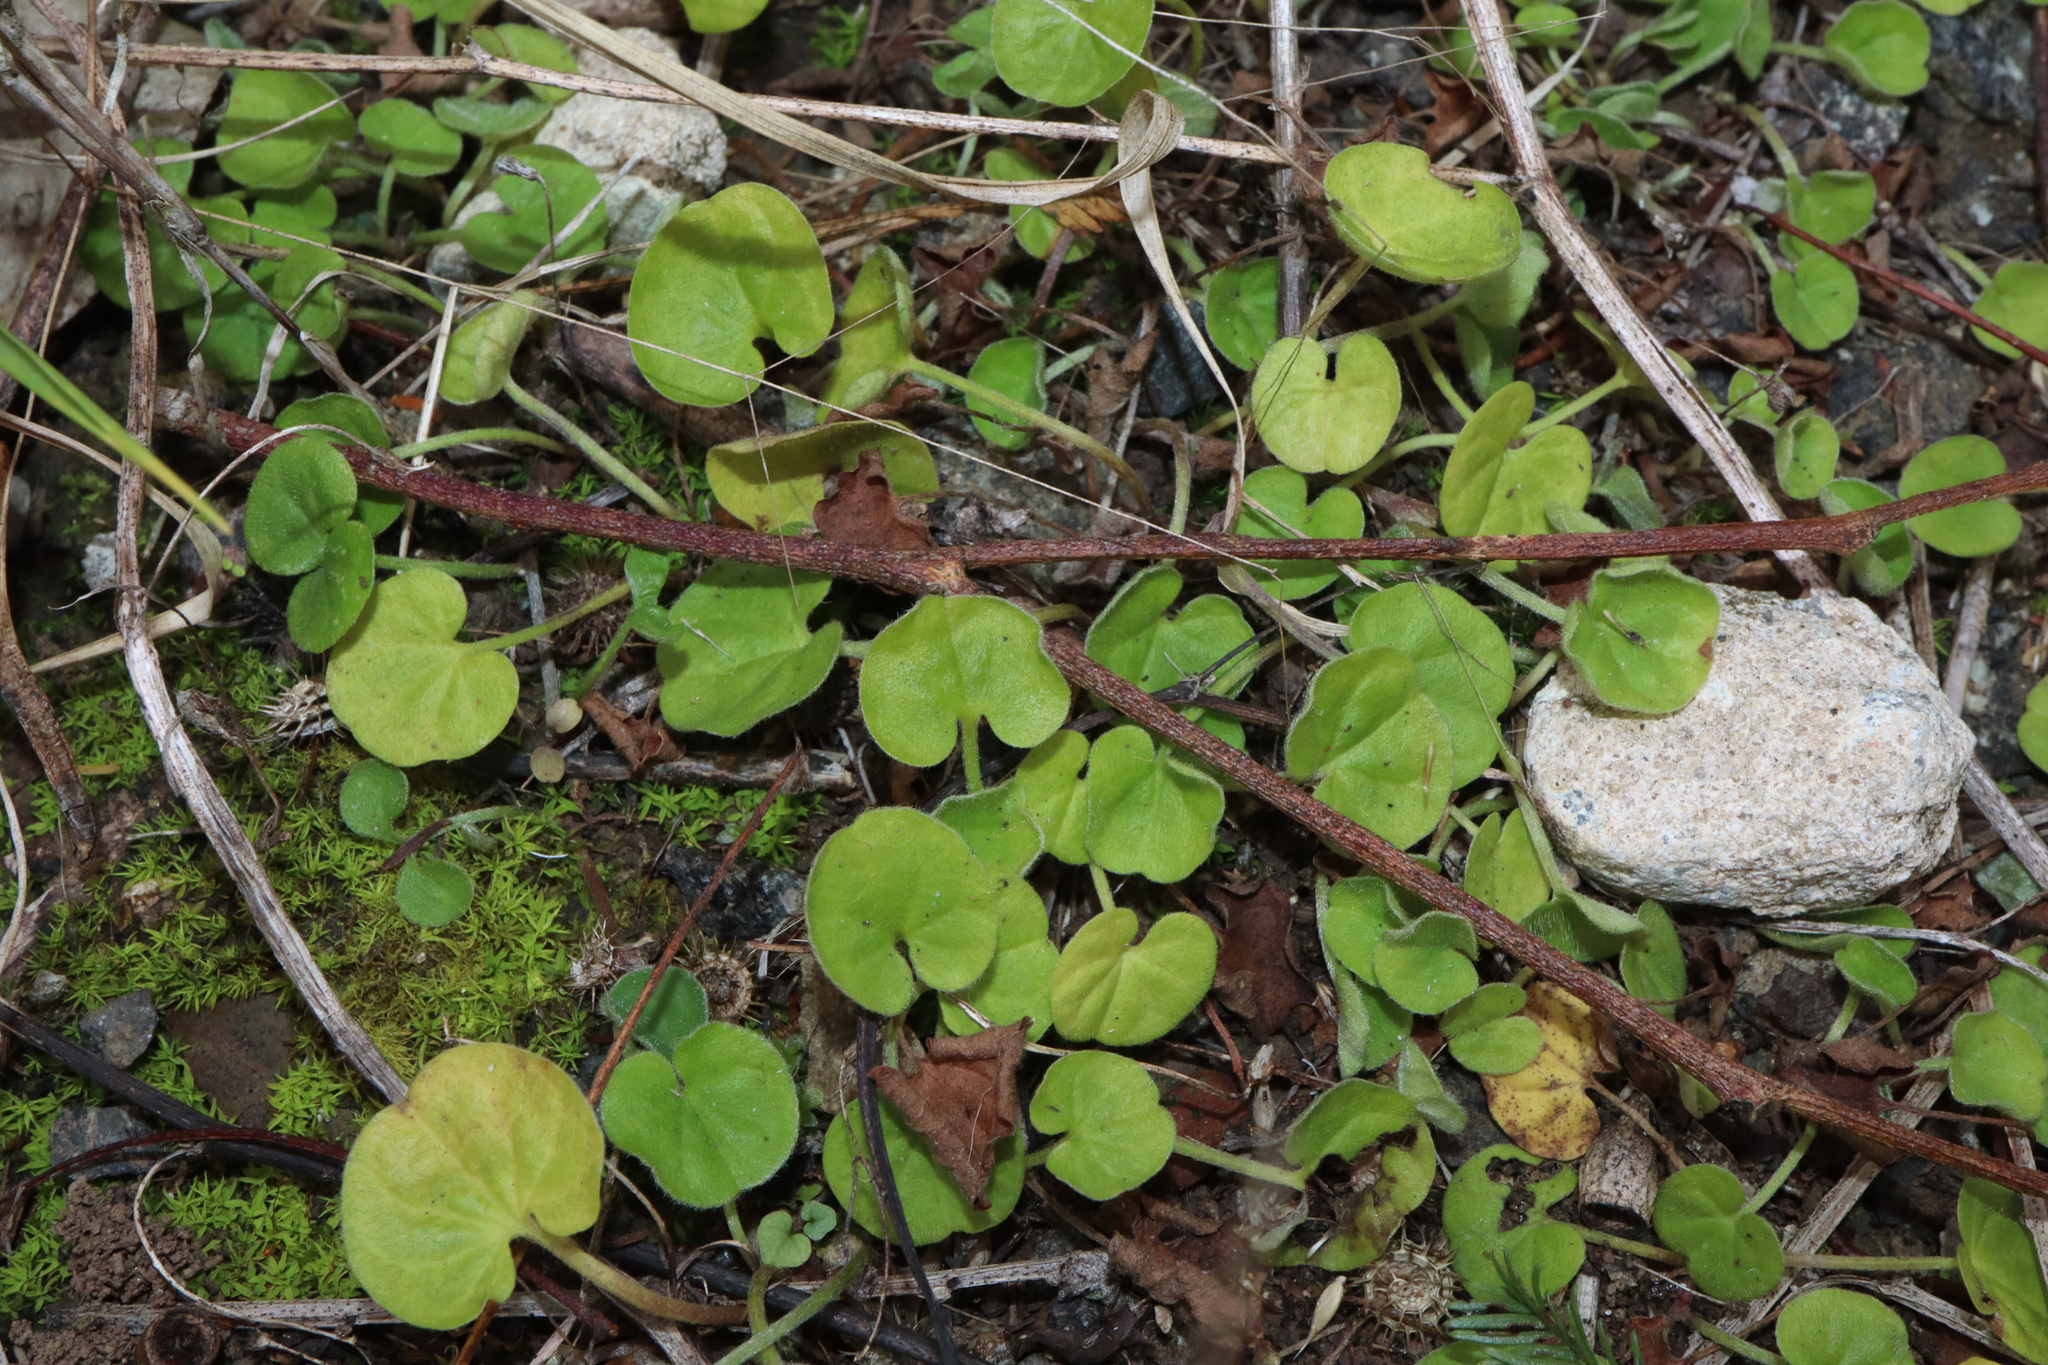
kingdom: Plantae
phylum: Tracheophyta
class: Magnoliopsida
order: Solanales
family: Convolvulaceae
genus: Dichondra
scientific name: Dichondra repens
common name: Kidneyweed
